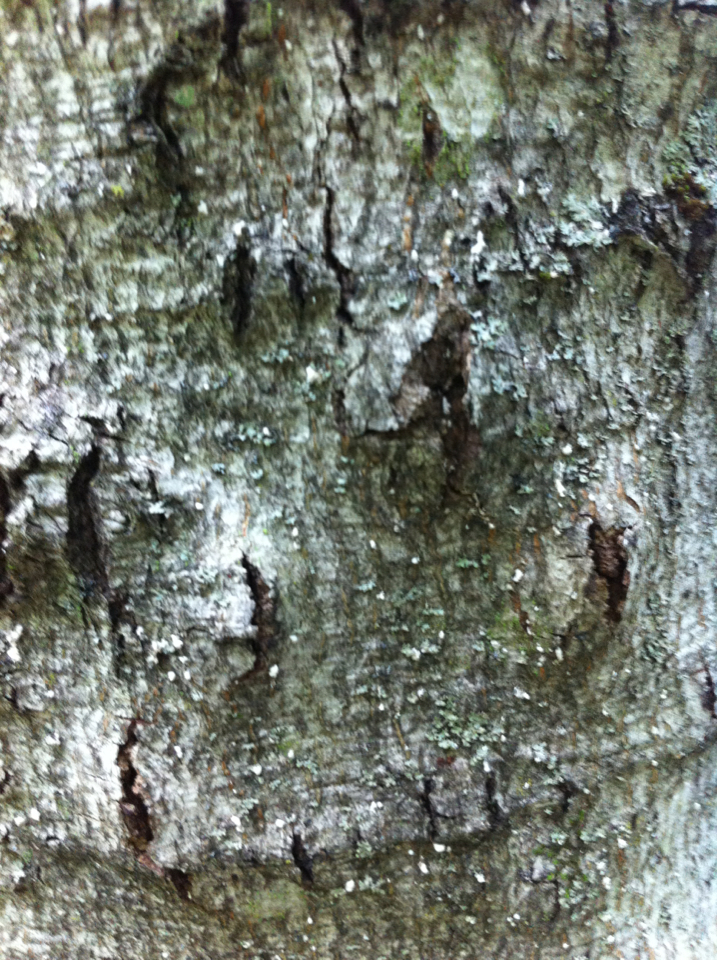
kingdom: Animalia
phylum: Arthropoda
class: Insecta
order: Hemiptera
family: Eriococcidae
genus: Cryptococcus
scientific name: Cryptococcus fagisuga
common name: Beech scale
